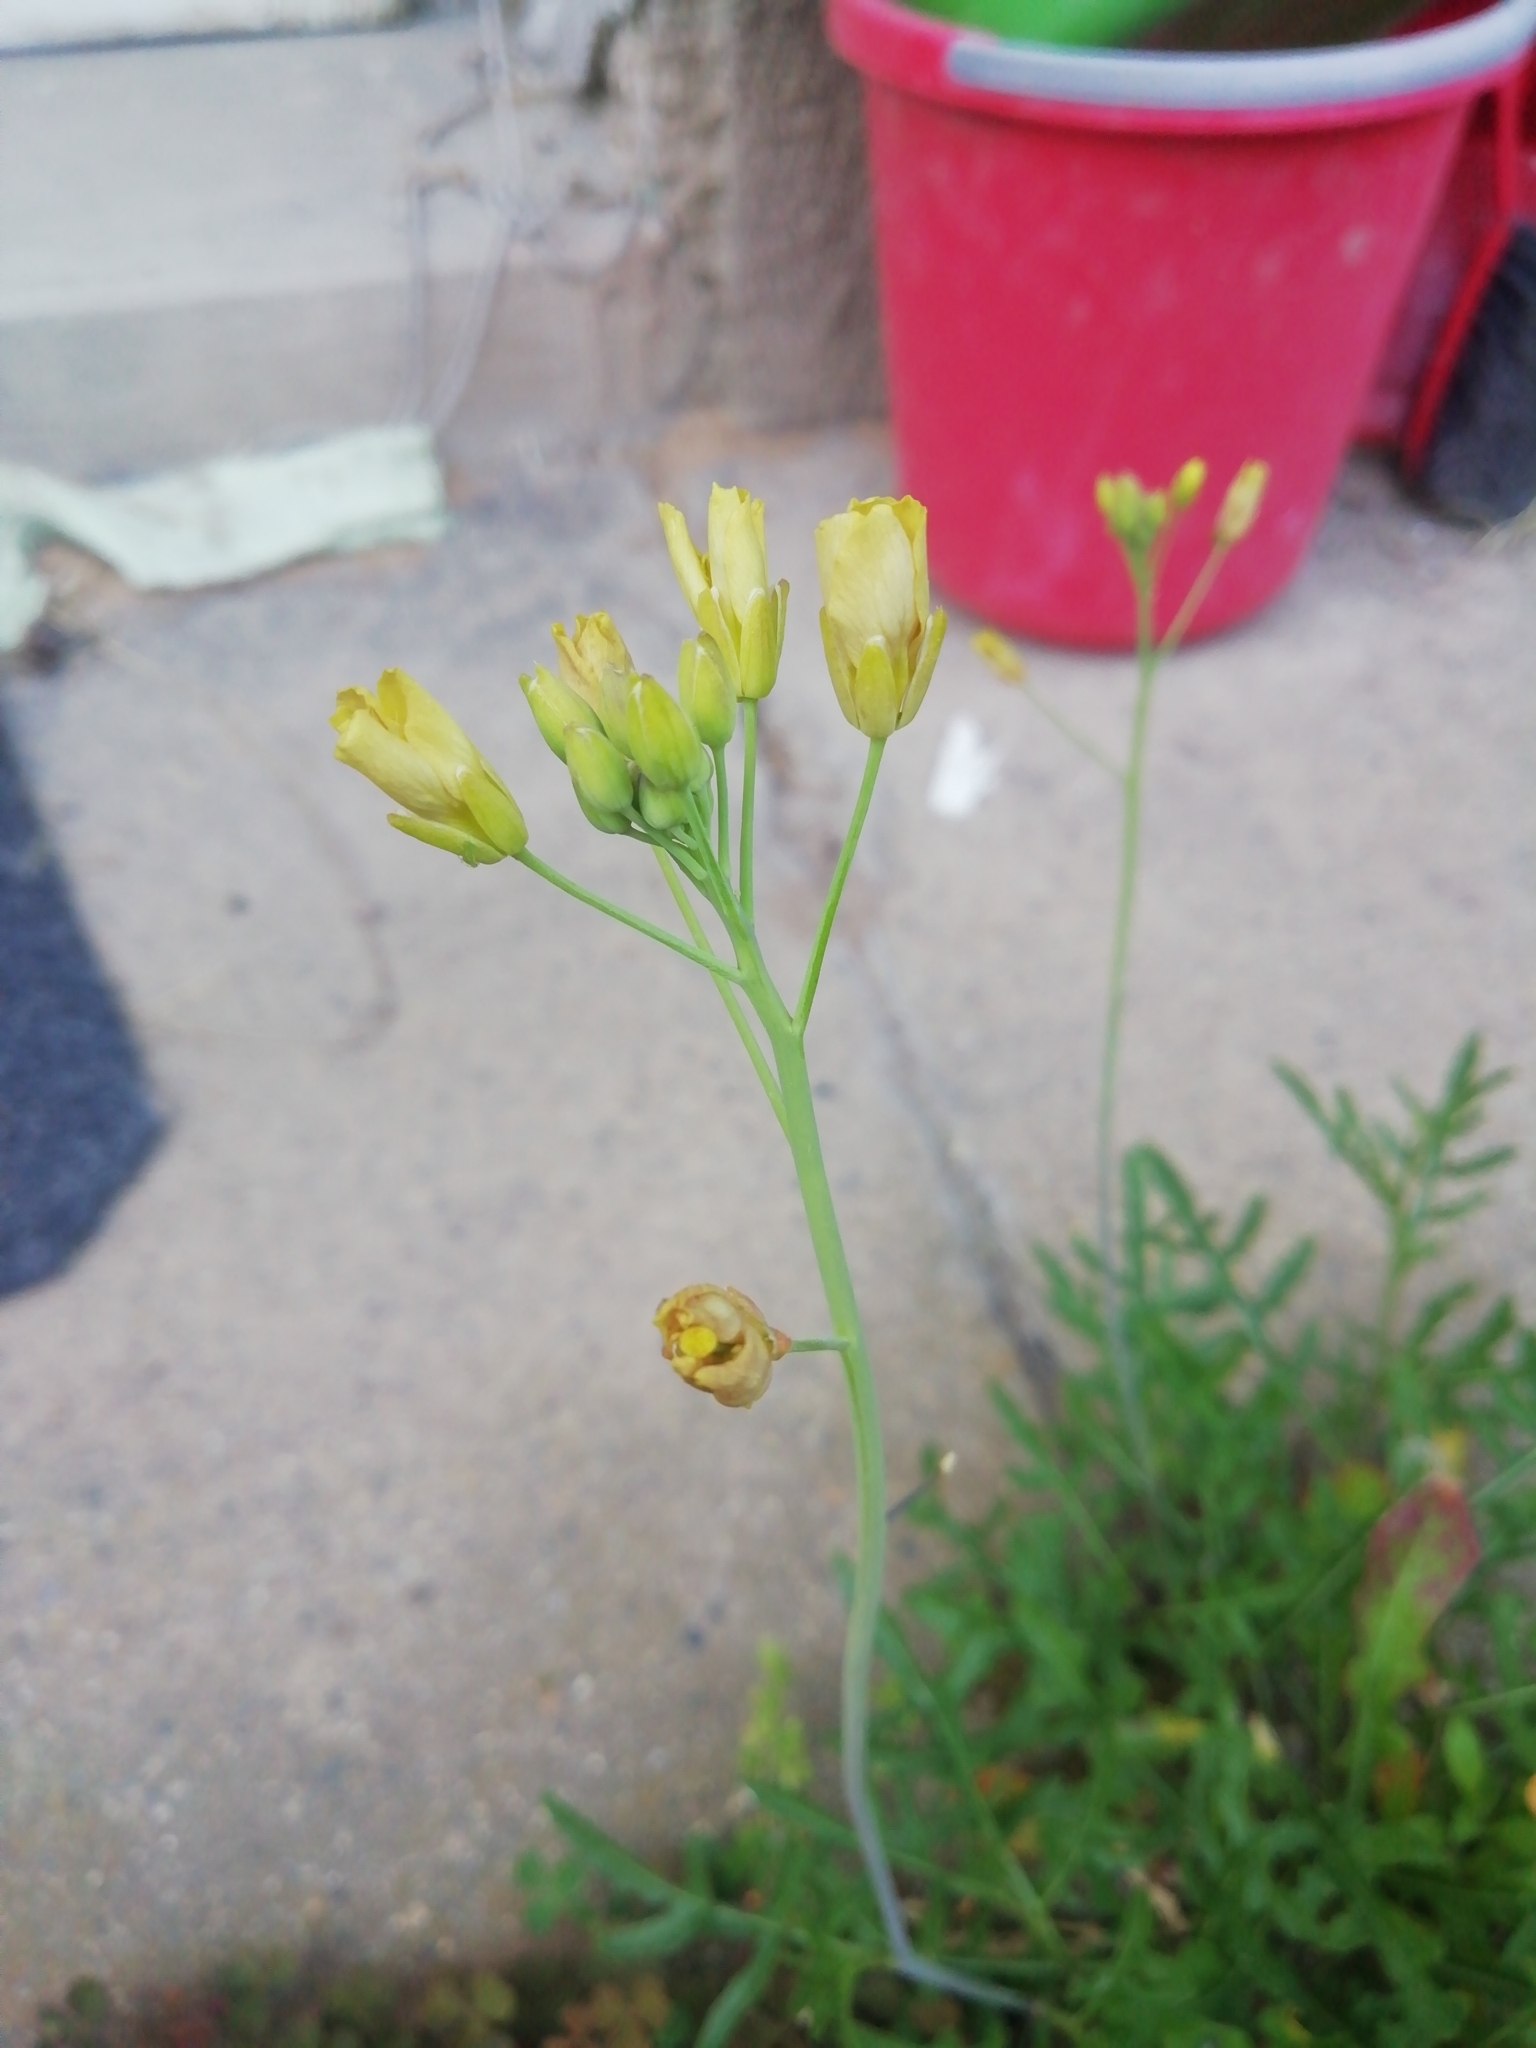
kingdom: Plantae
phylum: Tracheophyta
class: Magnoliopsida
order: Brassicales
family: Brassicaceae
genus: Diplotaxis
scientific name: Diplotaxis tenuifolia
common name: Perennial wall-rocket
